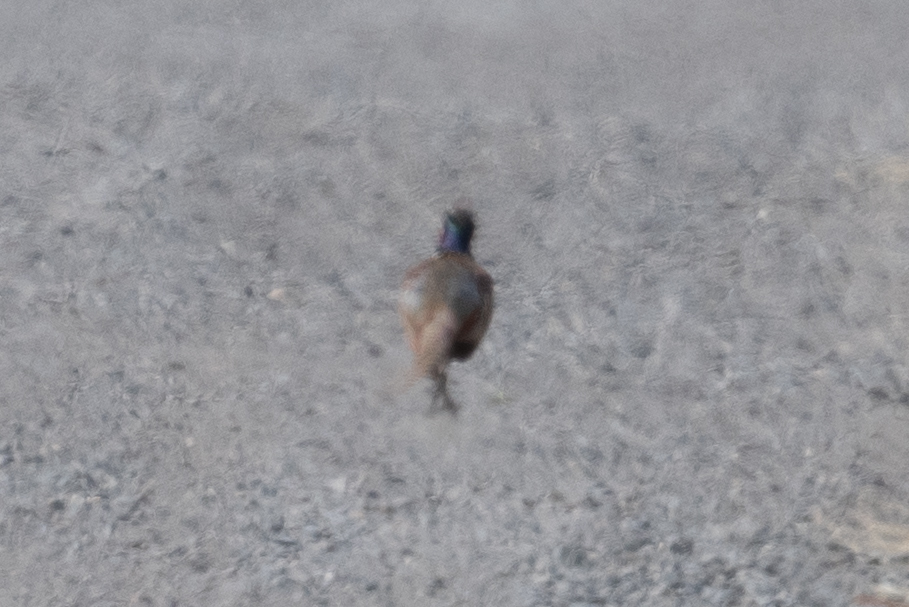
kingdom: Animalia
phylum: Chordata
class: Aves
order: Galliformes
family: Phasianidae
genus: Phasianus
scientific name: Phasianus colchicus
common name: Common pheasant
